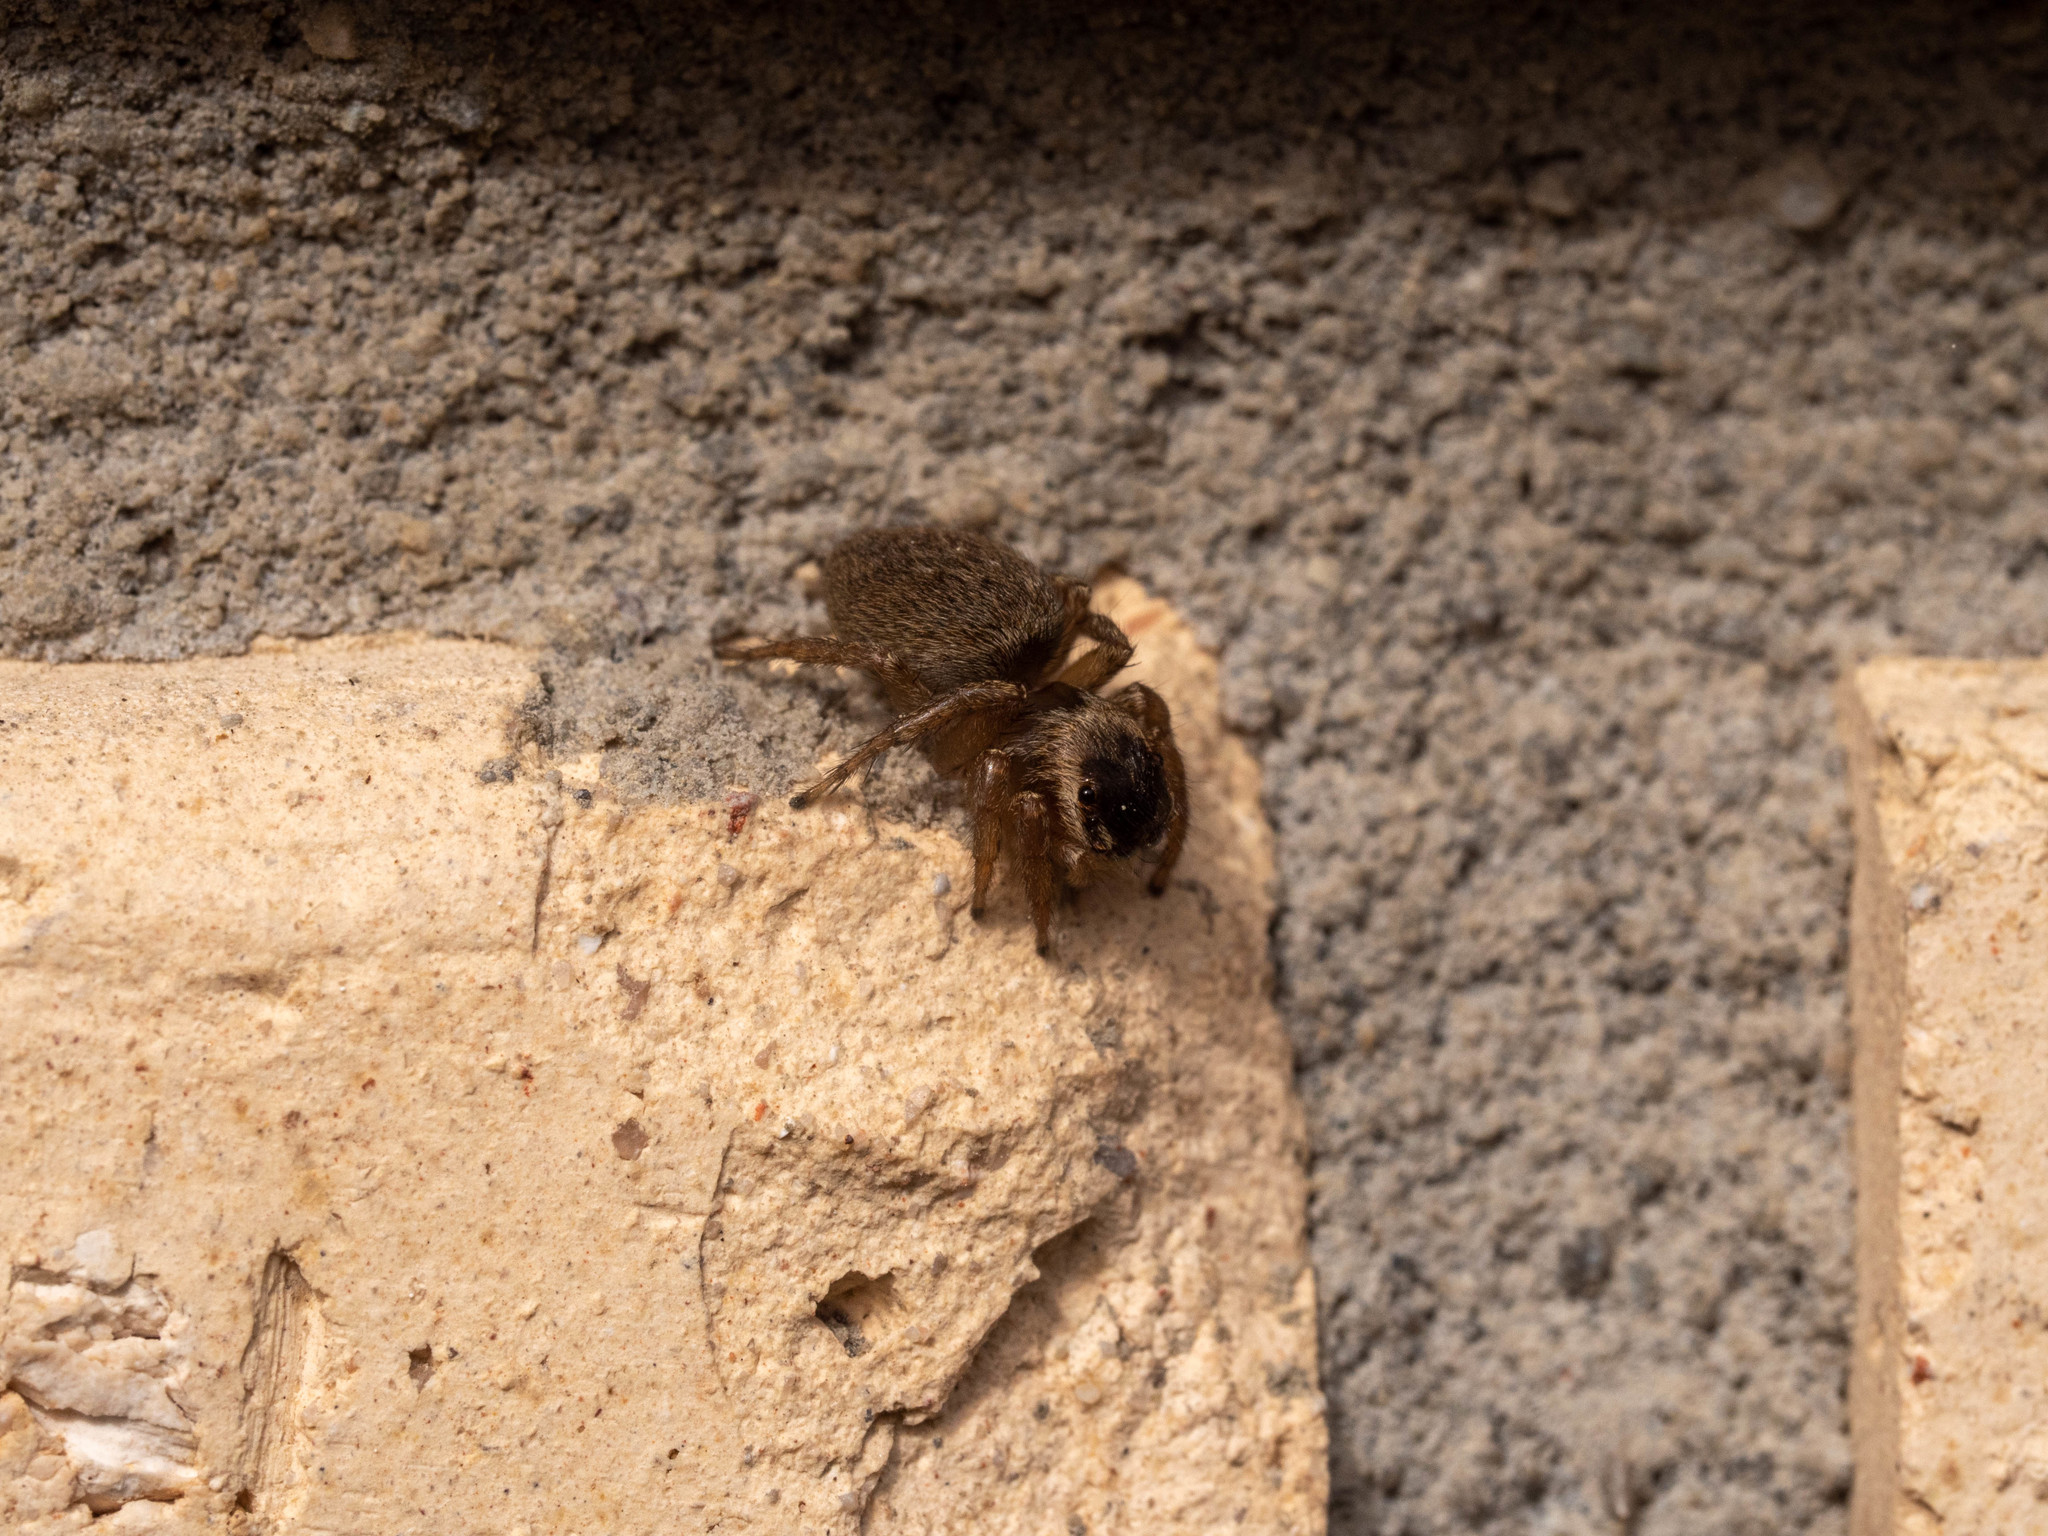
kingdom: Animalia
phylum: Arthropoda
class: Arachnida
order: Araneae
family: Salticidae
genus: Maratus
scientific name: Maratus griseus
